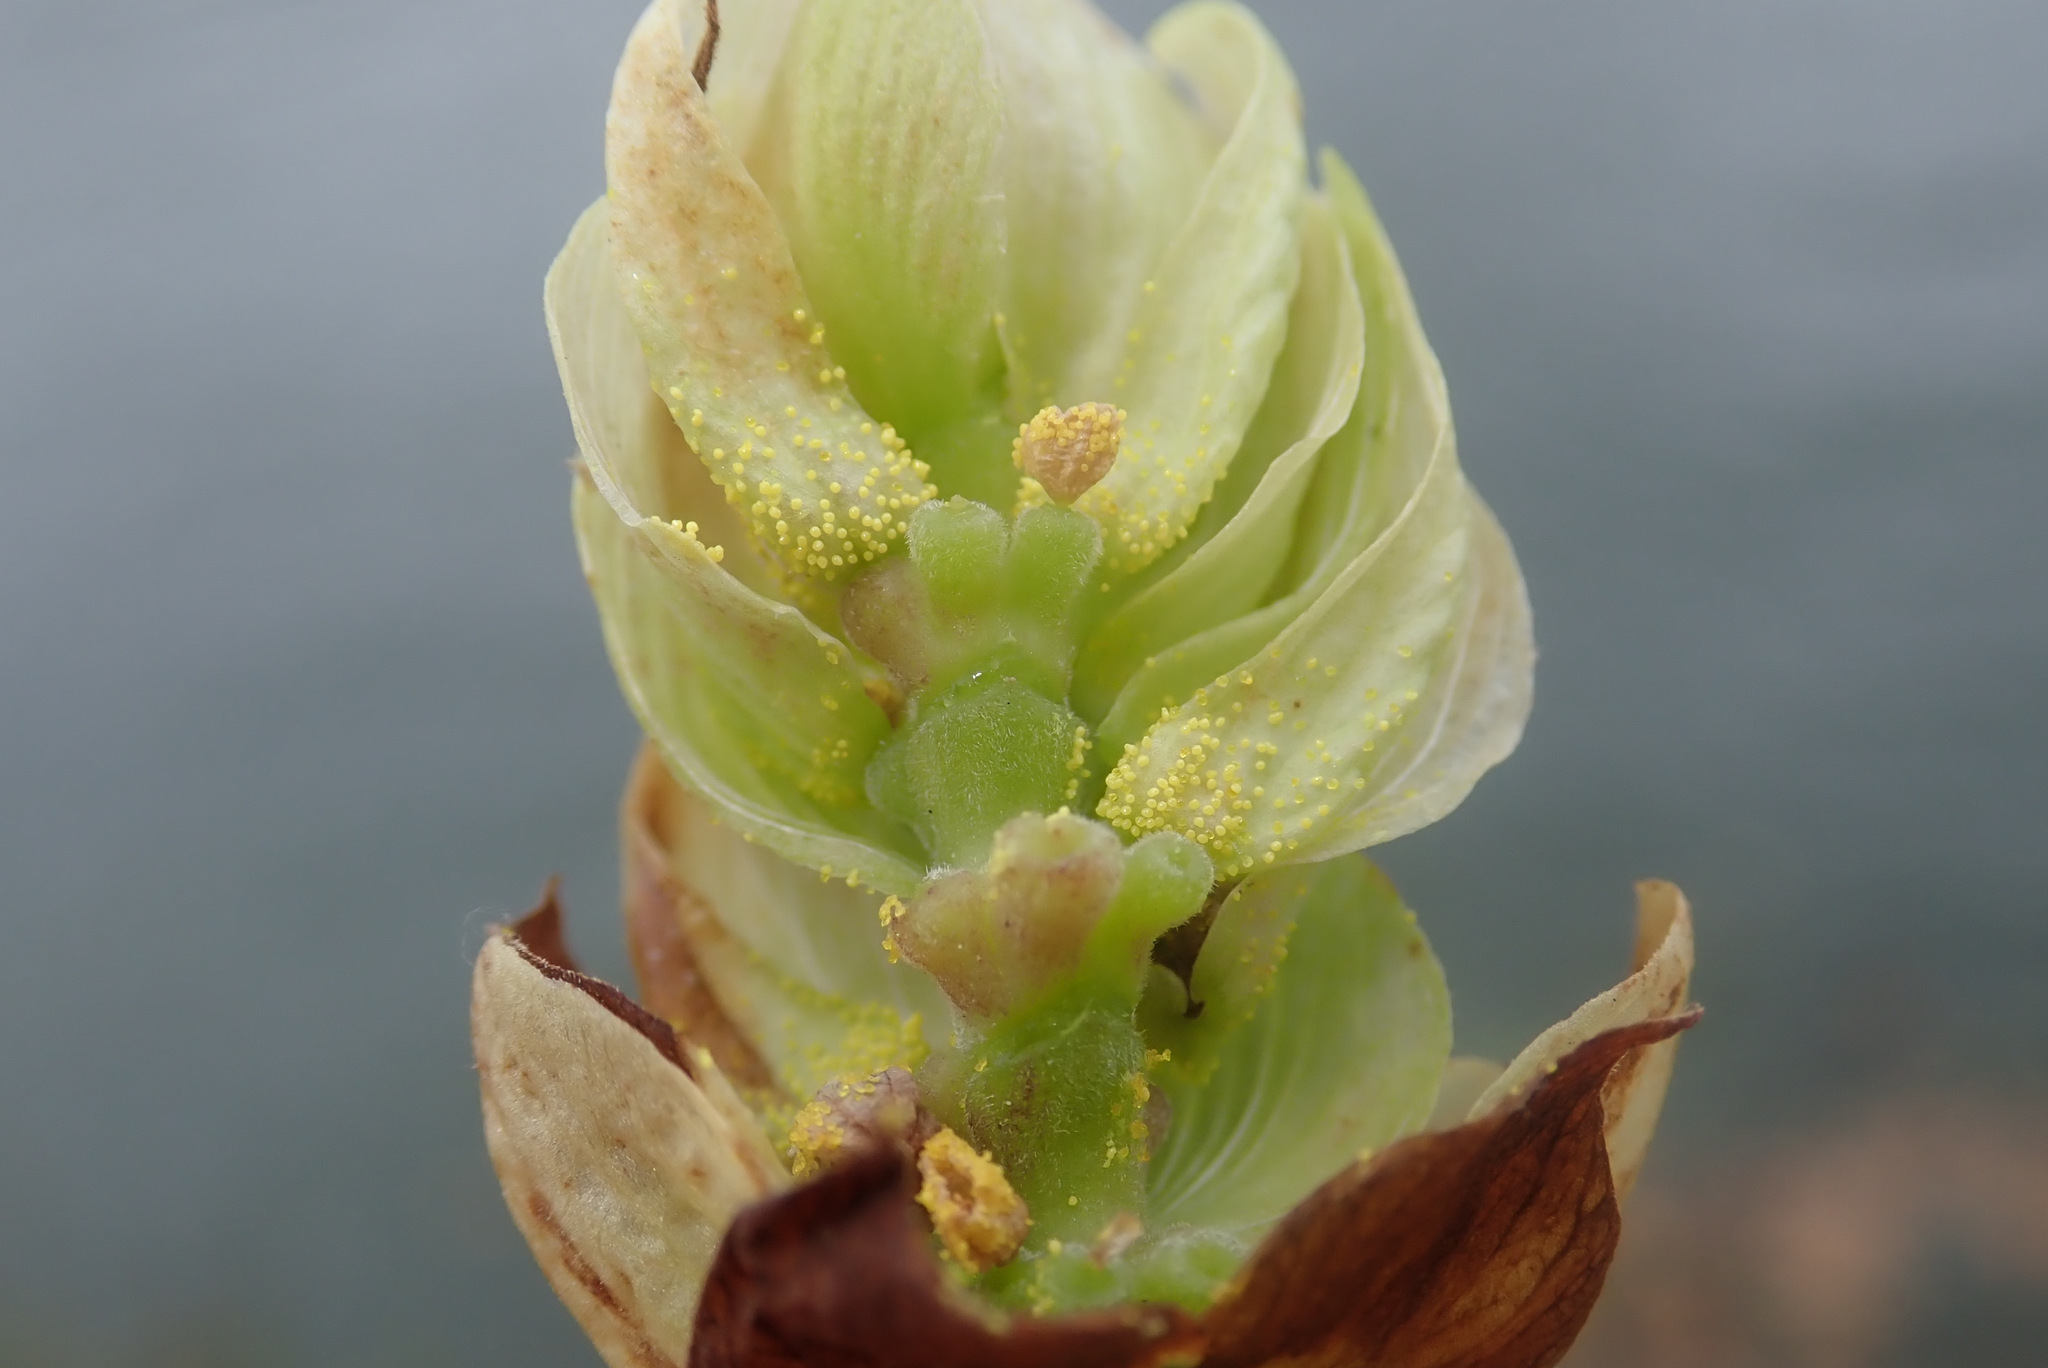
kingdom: Plantae
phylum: Tracheophyta
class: Magnoliopsida
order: Rosales
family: Cannabaceae
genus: Humulus
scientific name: Humulus lupulus
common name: Hop
